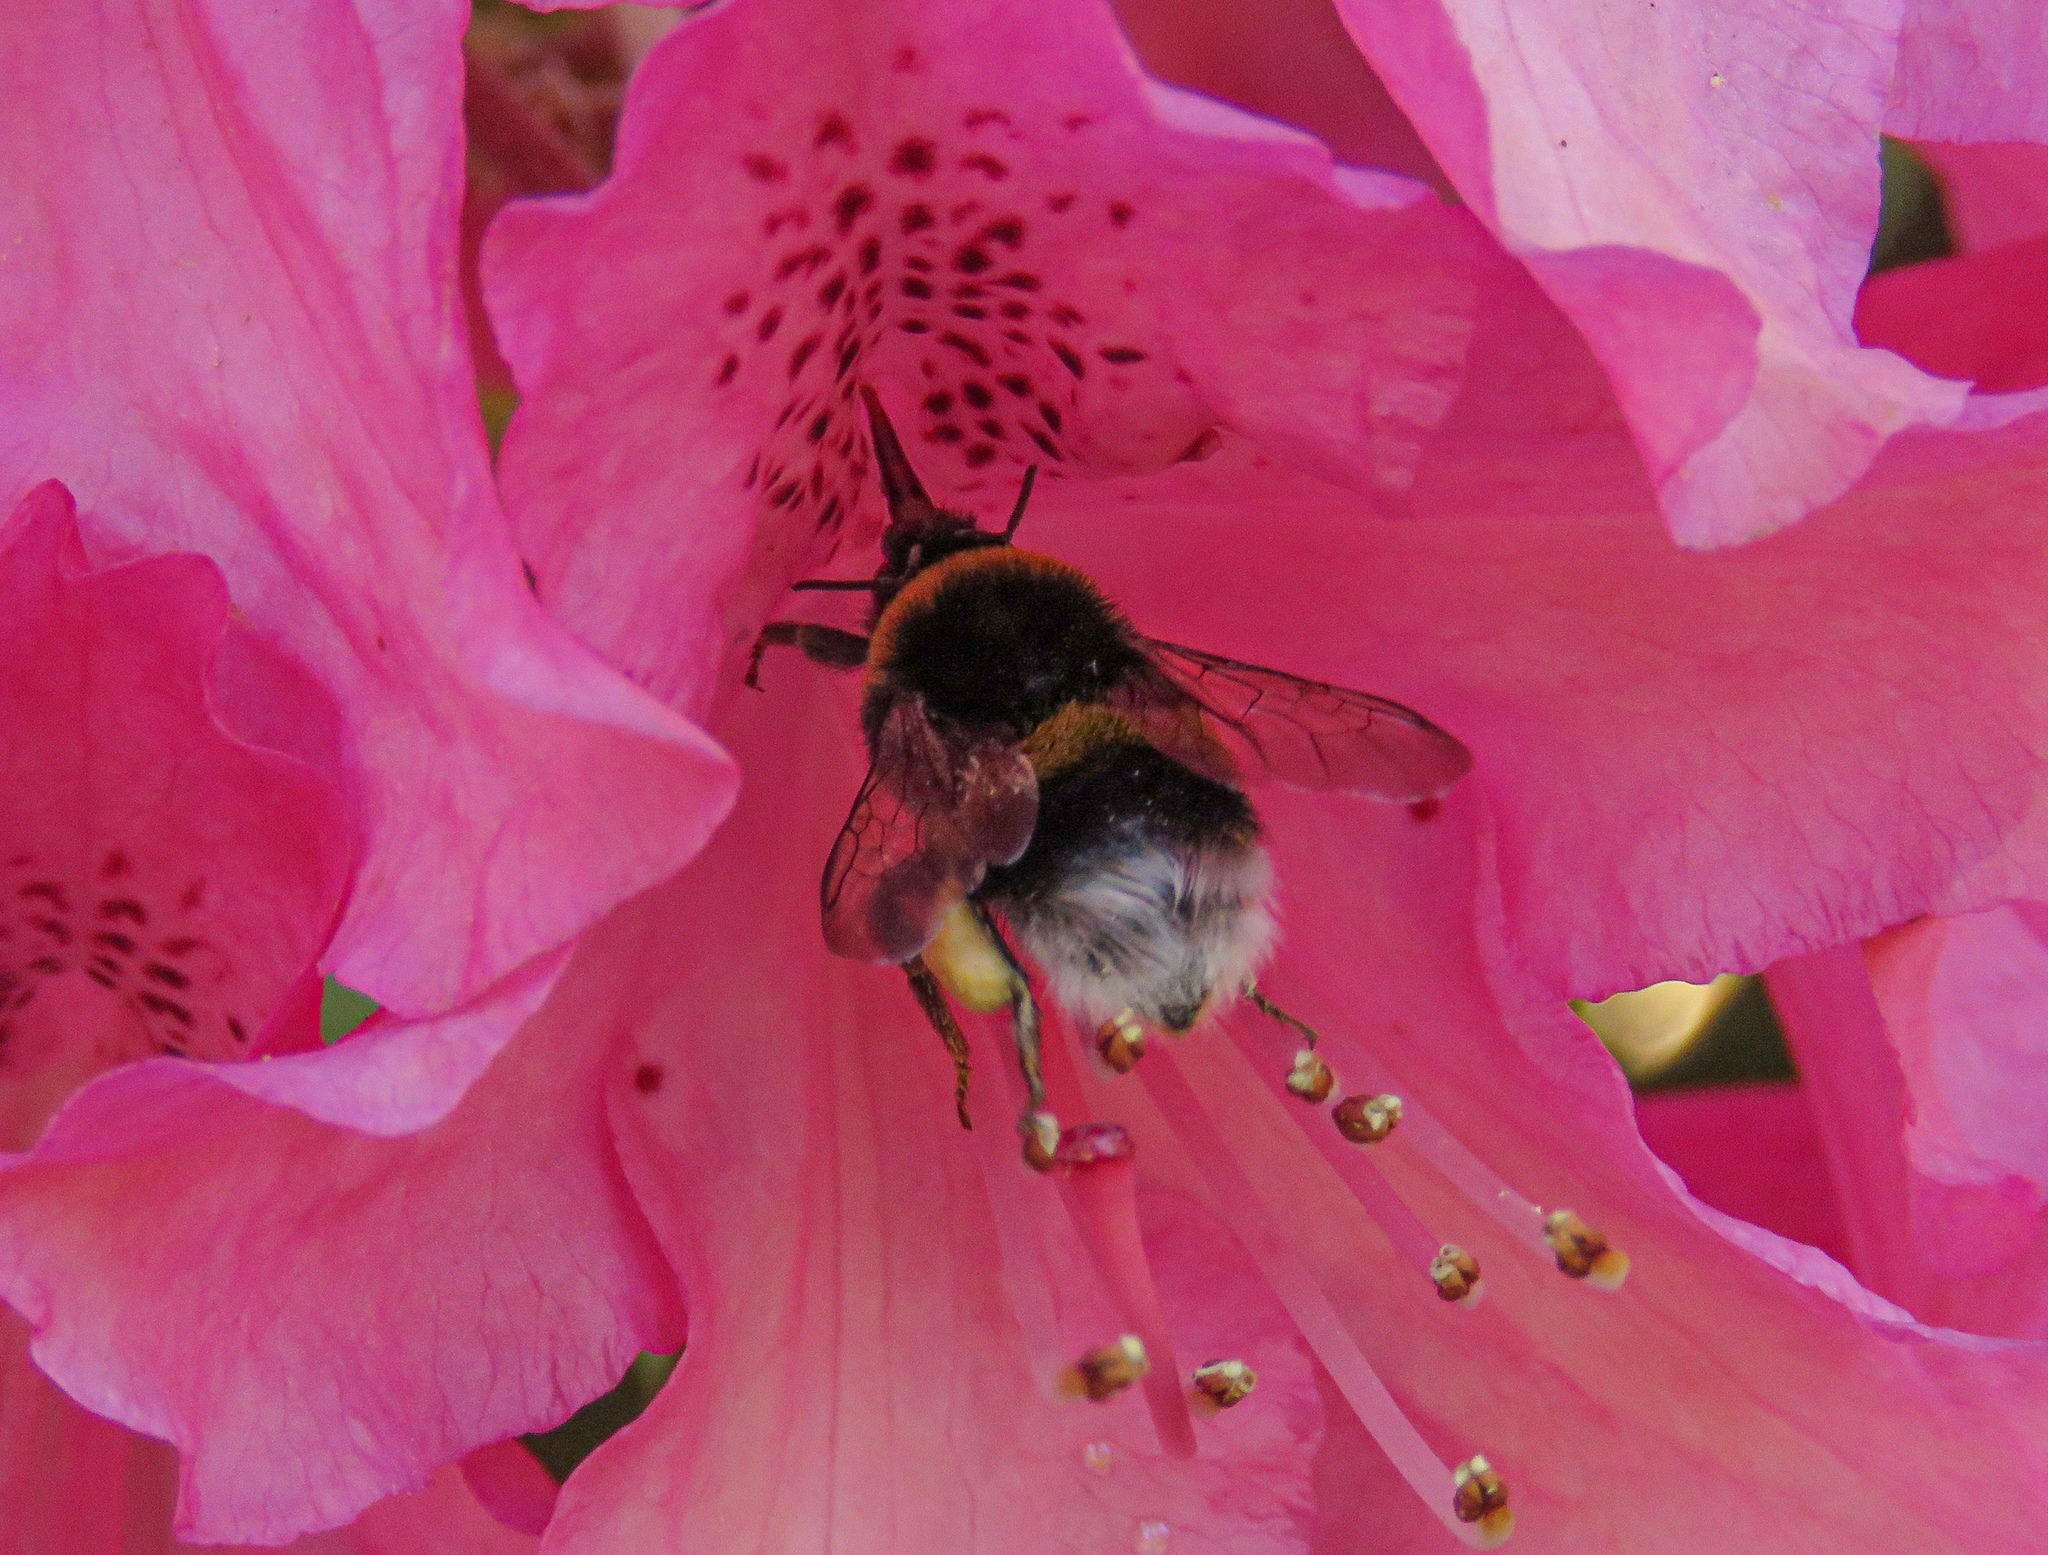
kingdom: Animalia
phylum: Arthropoda
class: Insecta
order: Hymenoptera
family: Apidae
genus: Bombus
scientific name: Bombus terrestris
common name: Buff-tailed bumblebee
